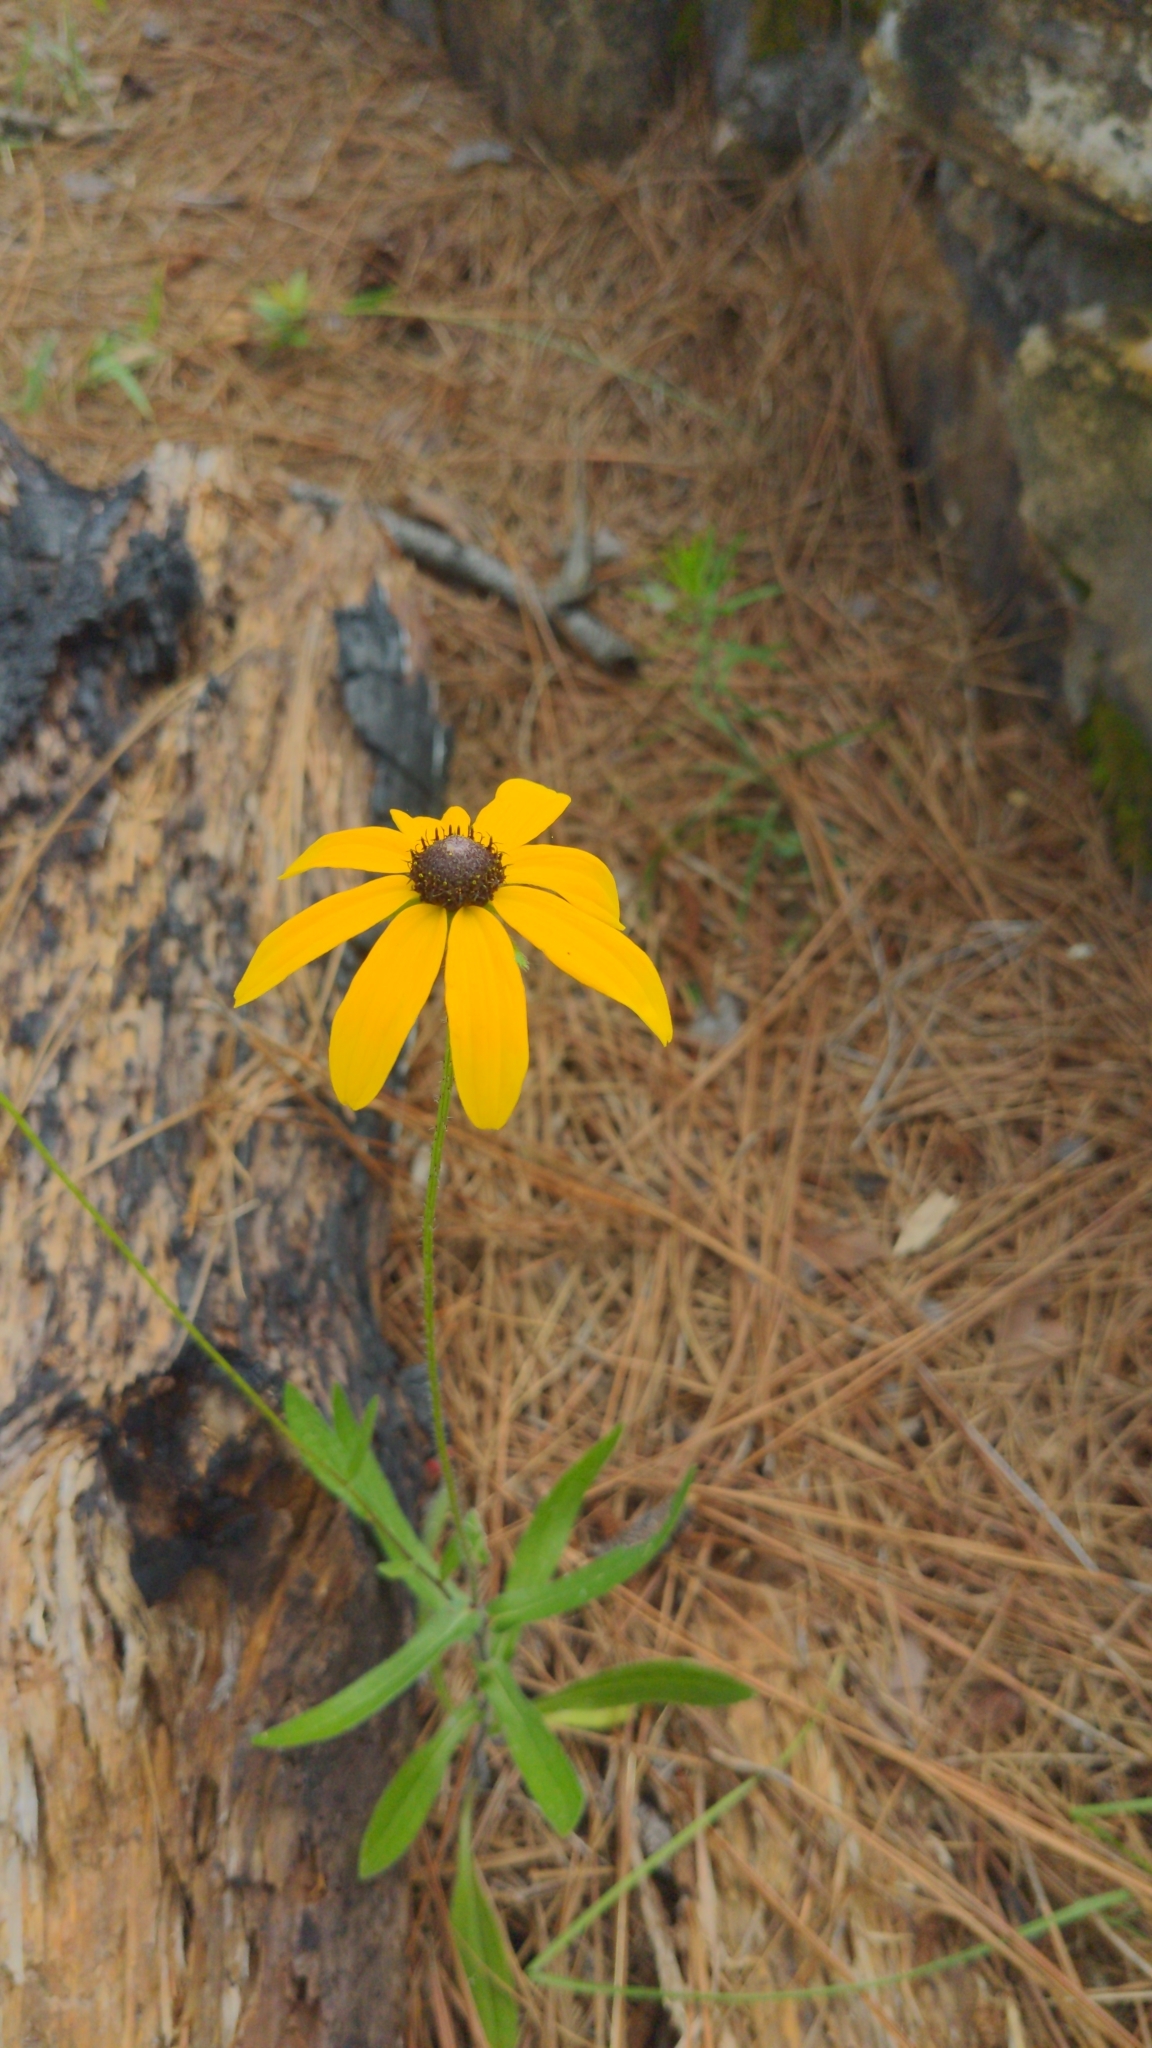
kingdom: Plantae
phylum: Tracheophyta
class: Magnoliopsida
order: Asterales
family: Asteraceae
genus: Rudbeckia
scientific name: Rudbeckia hirta
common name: Black-eyed-susan
